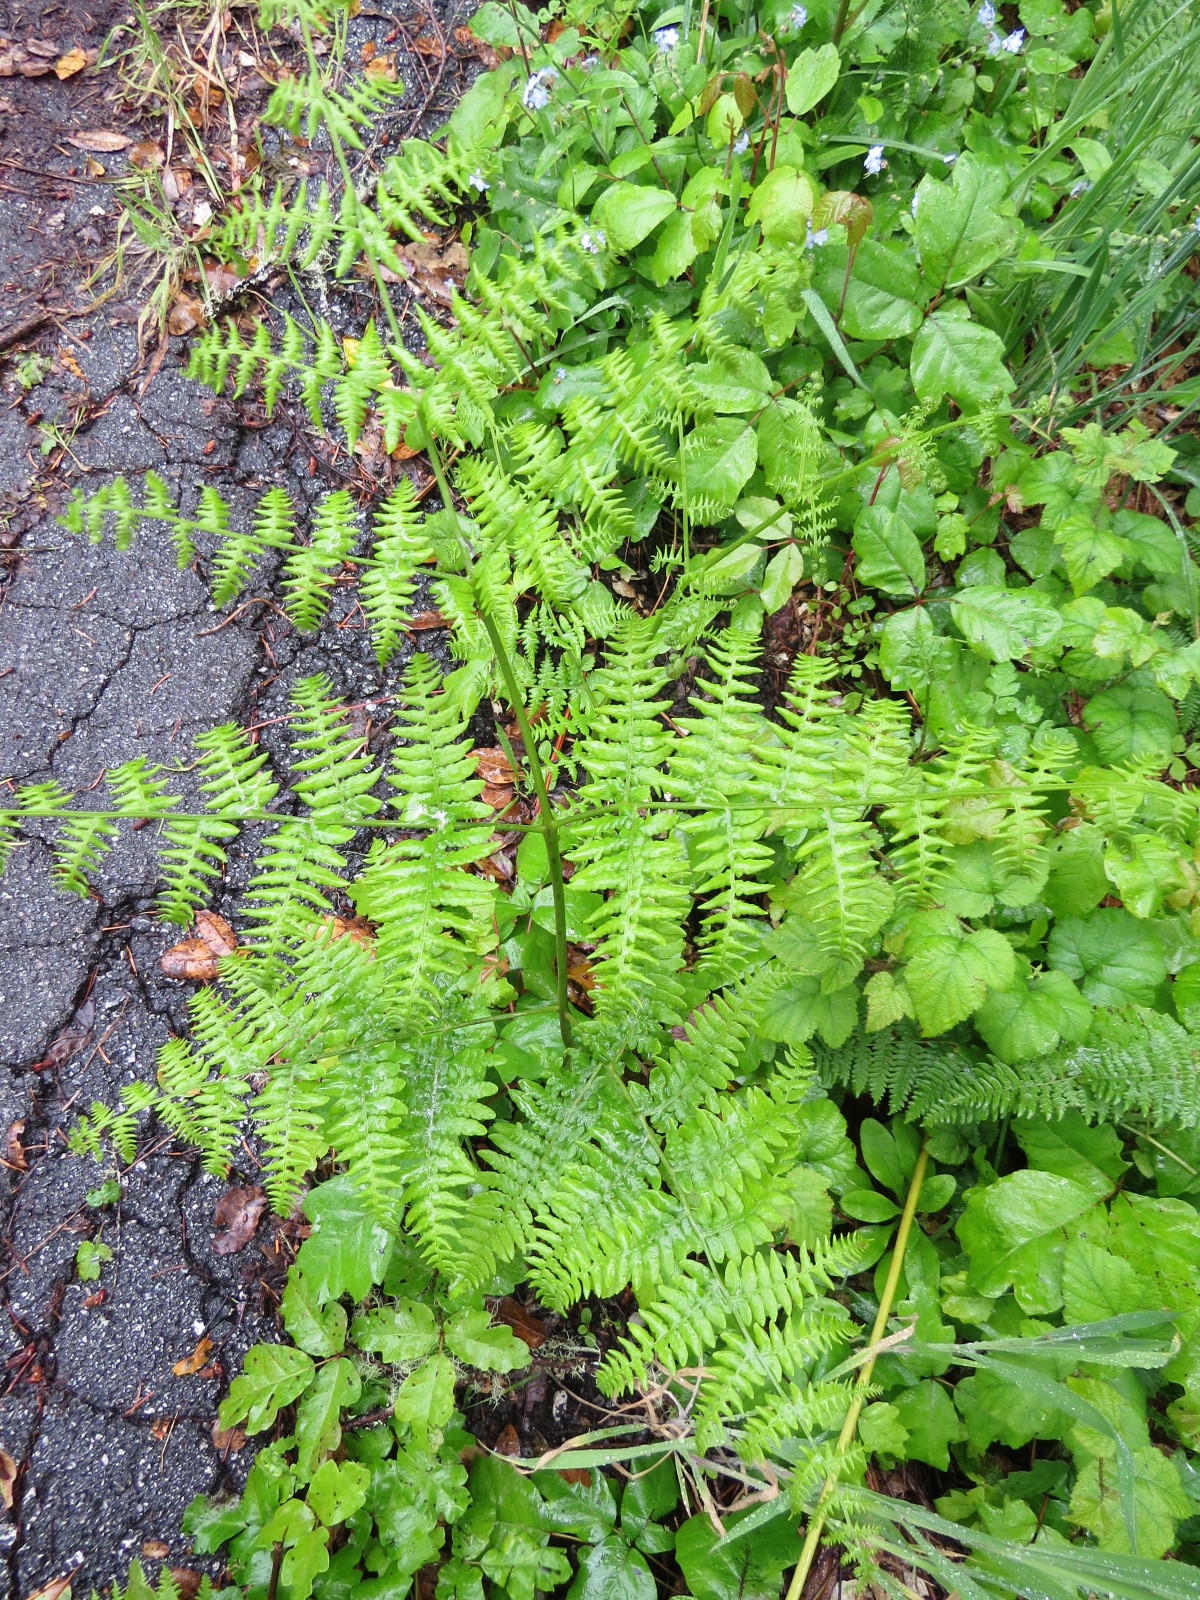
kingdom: Plantae
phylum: Tracheophyta
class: Polypodiopsida
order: Polypodiales
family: Dennstaedtiaceae
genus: Pteridium
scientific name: Pteridium aquilinum
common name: Bracken
